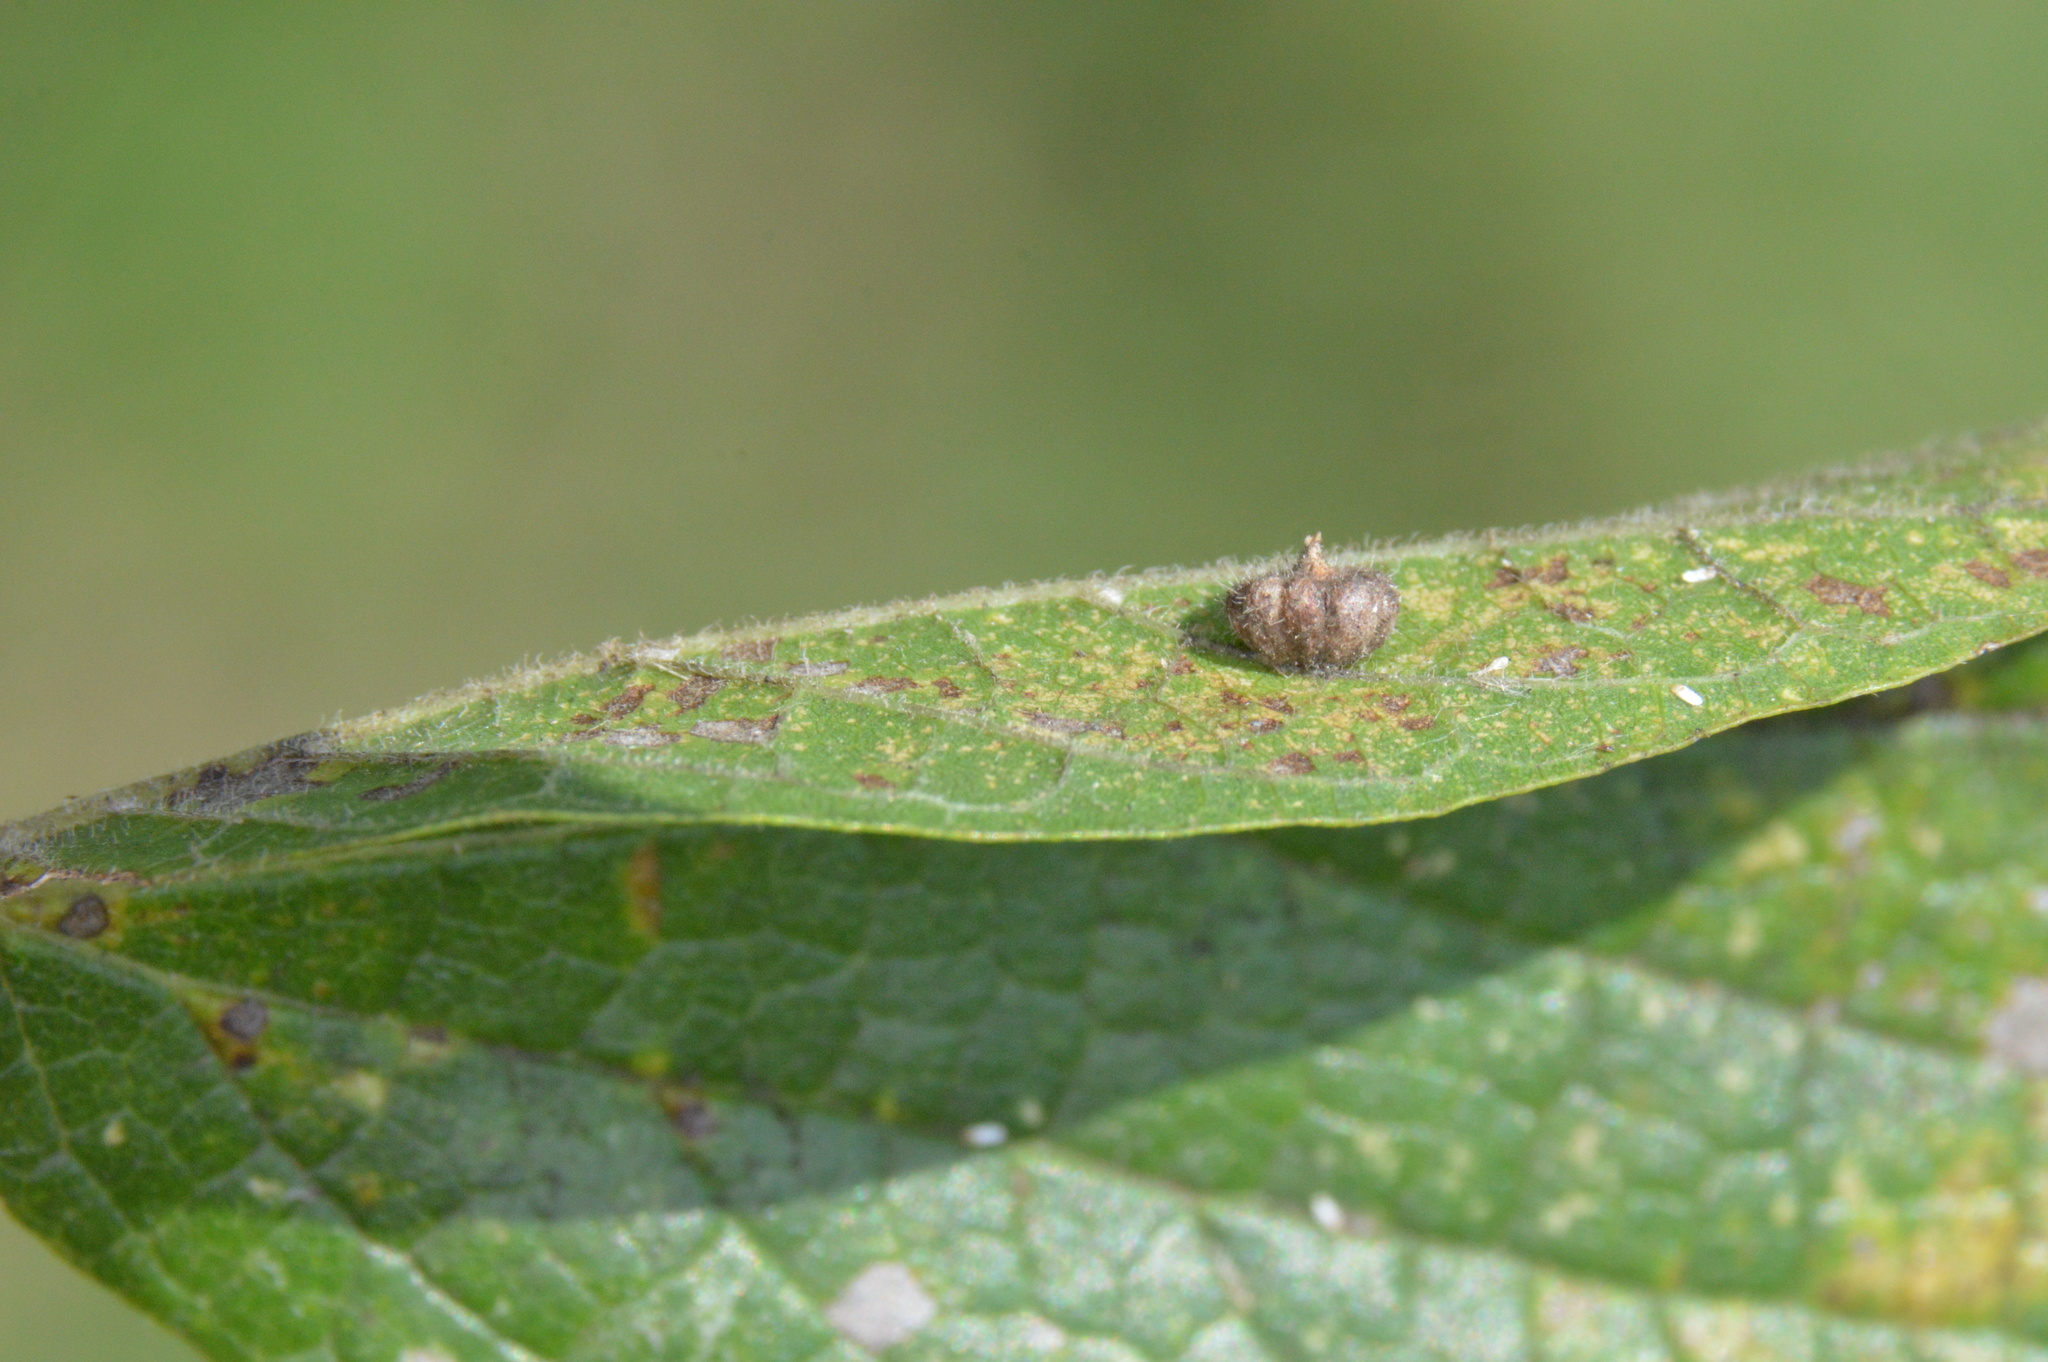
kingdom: Animalia
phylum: Arthropoda
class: Insecta
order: Diptera
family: Cecidomyiidae
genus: Celticecis
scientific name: Celticecis capsularis
